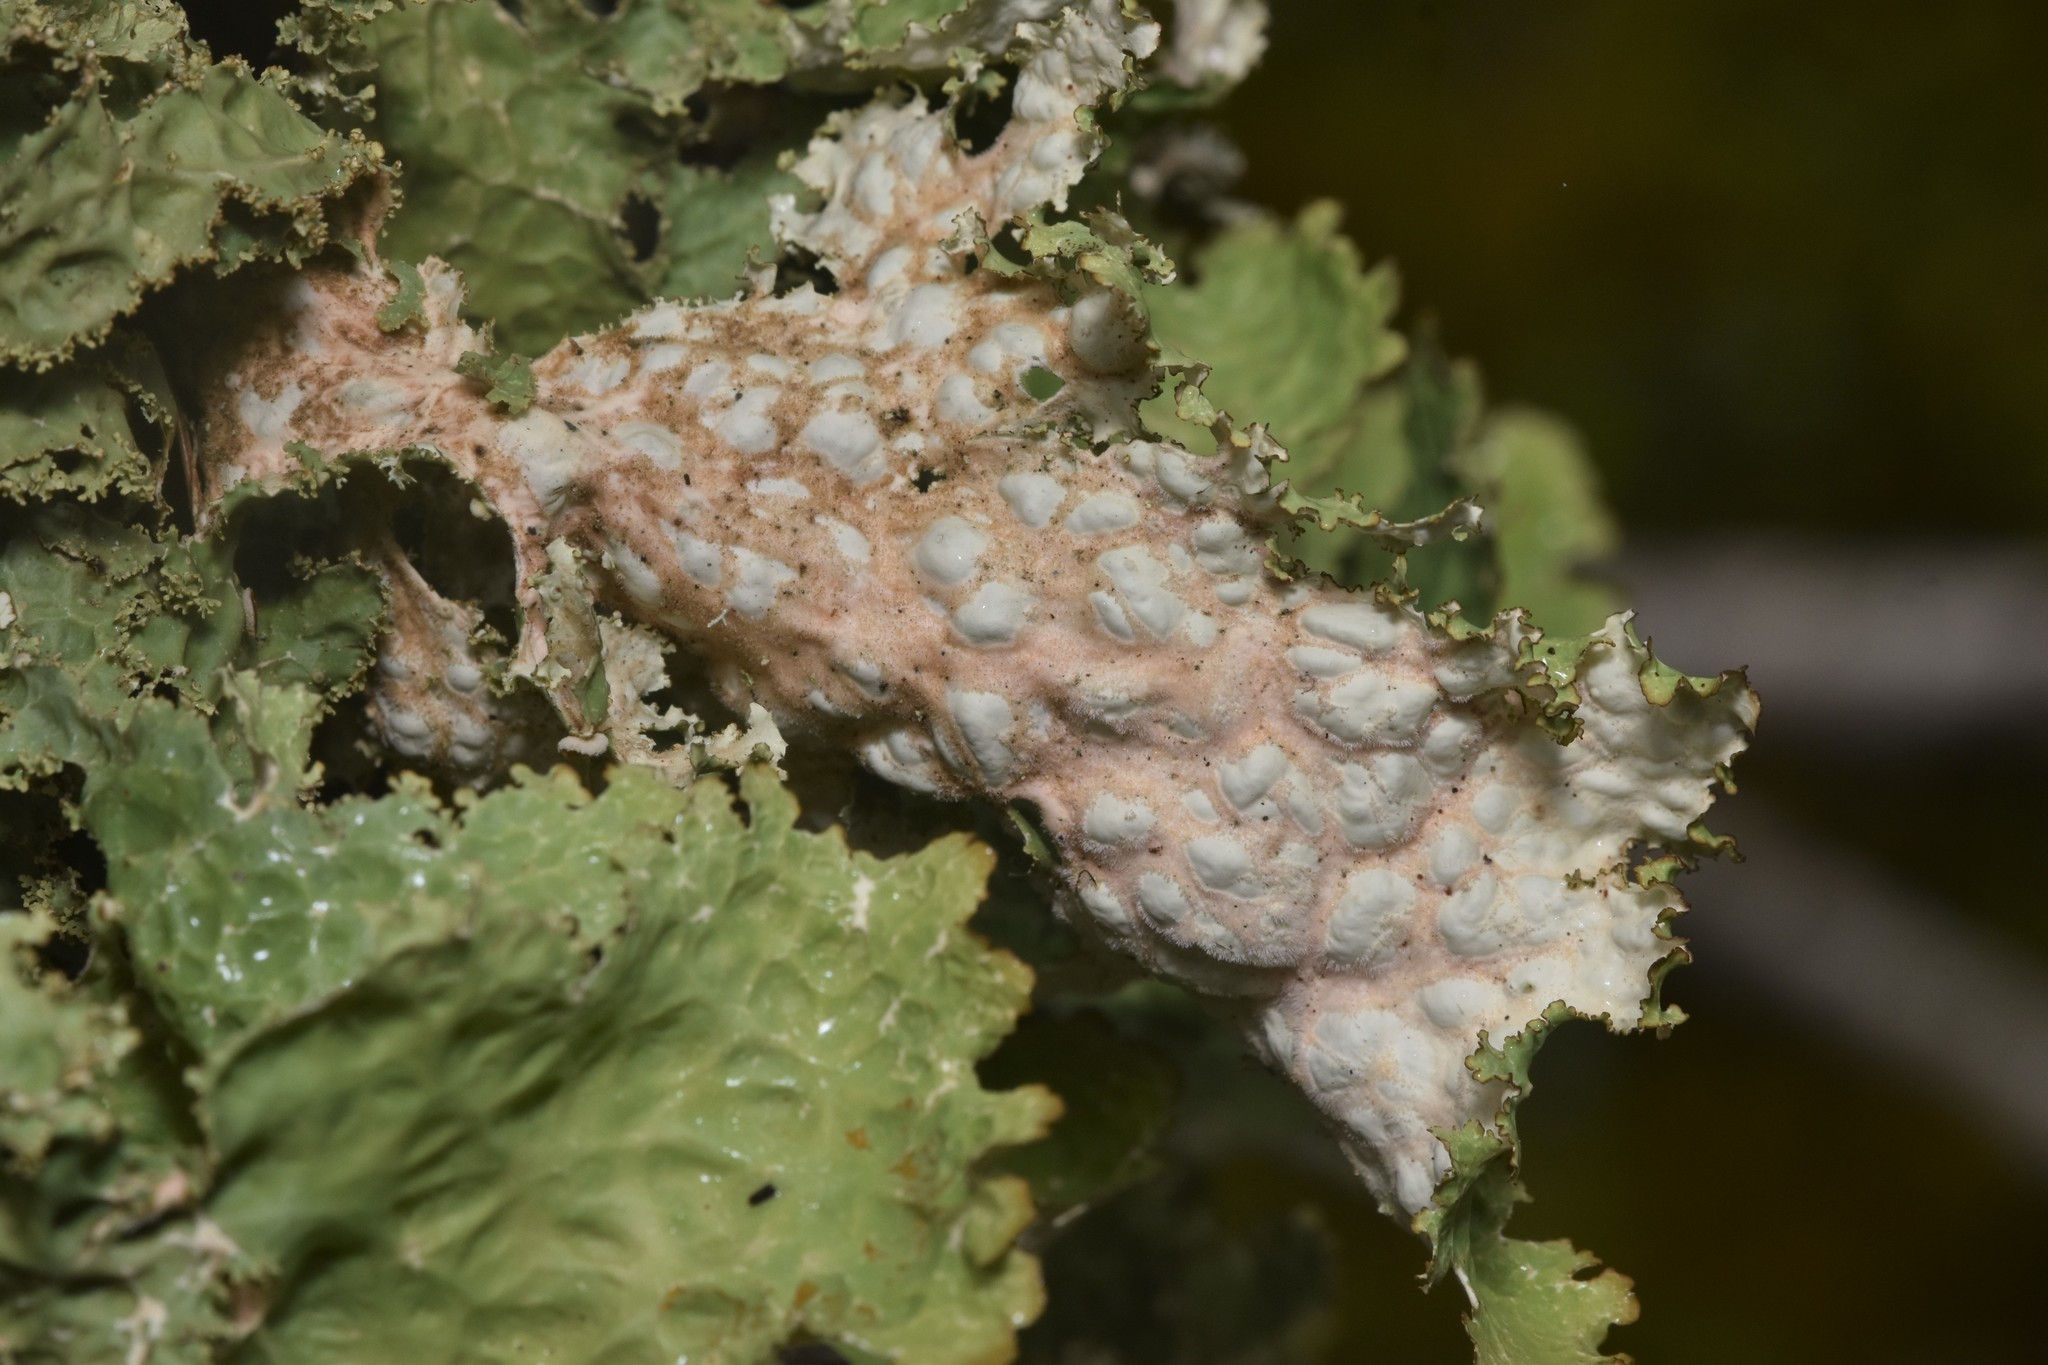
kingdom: Fungi
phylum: Ascomycota
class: Lecanoromycetes
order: Peltigerales
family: Lobariaceae
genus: Lobaria
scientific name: Lobaria oregana
